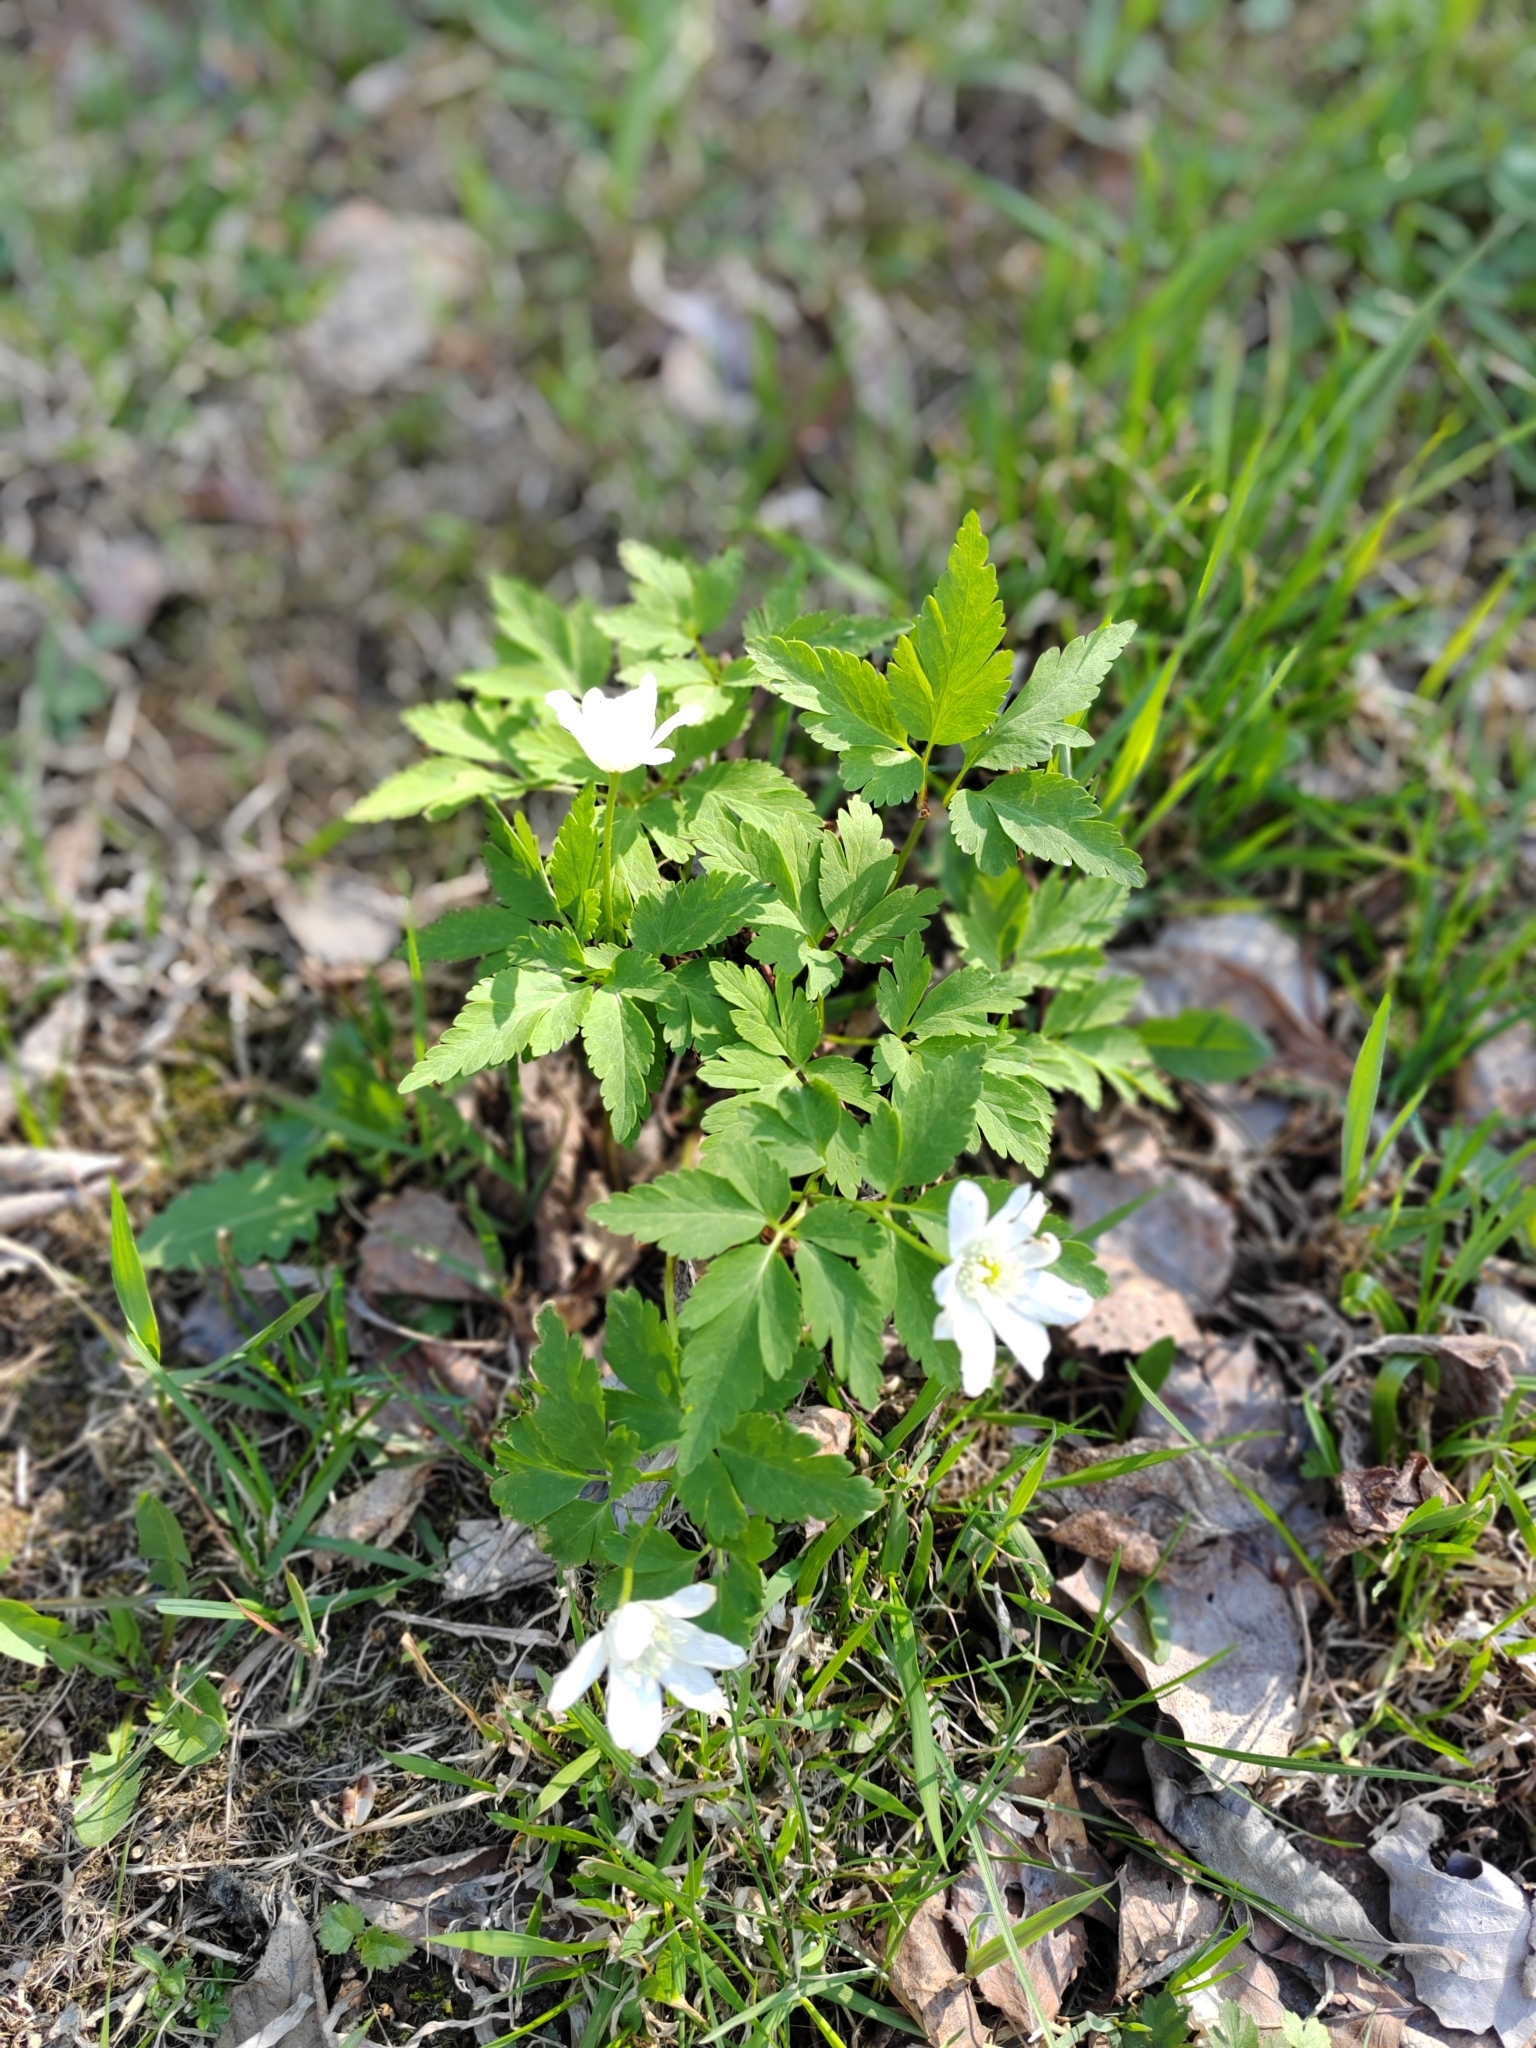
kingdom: Plantae
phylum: Tracheophyta
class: Magnoliopsida
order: Ranunculales
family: Ranunculaceae
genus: Anemone
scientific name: Anemone altaica
